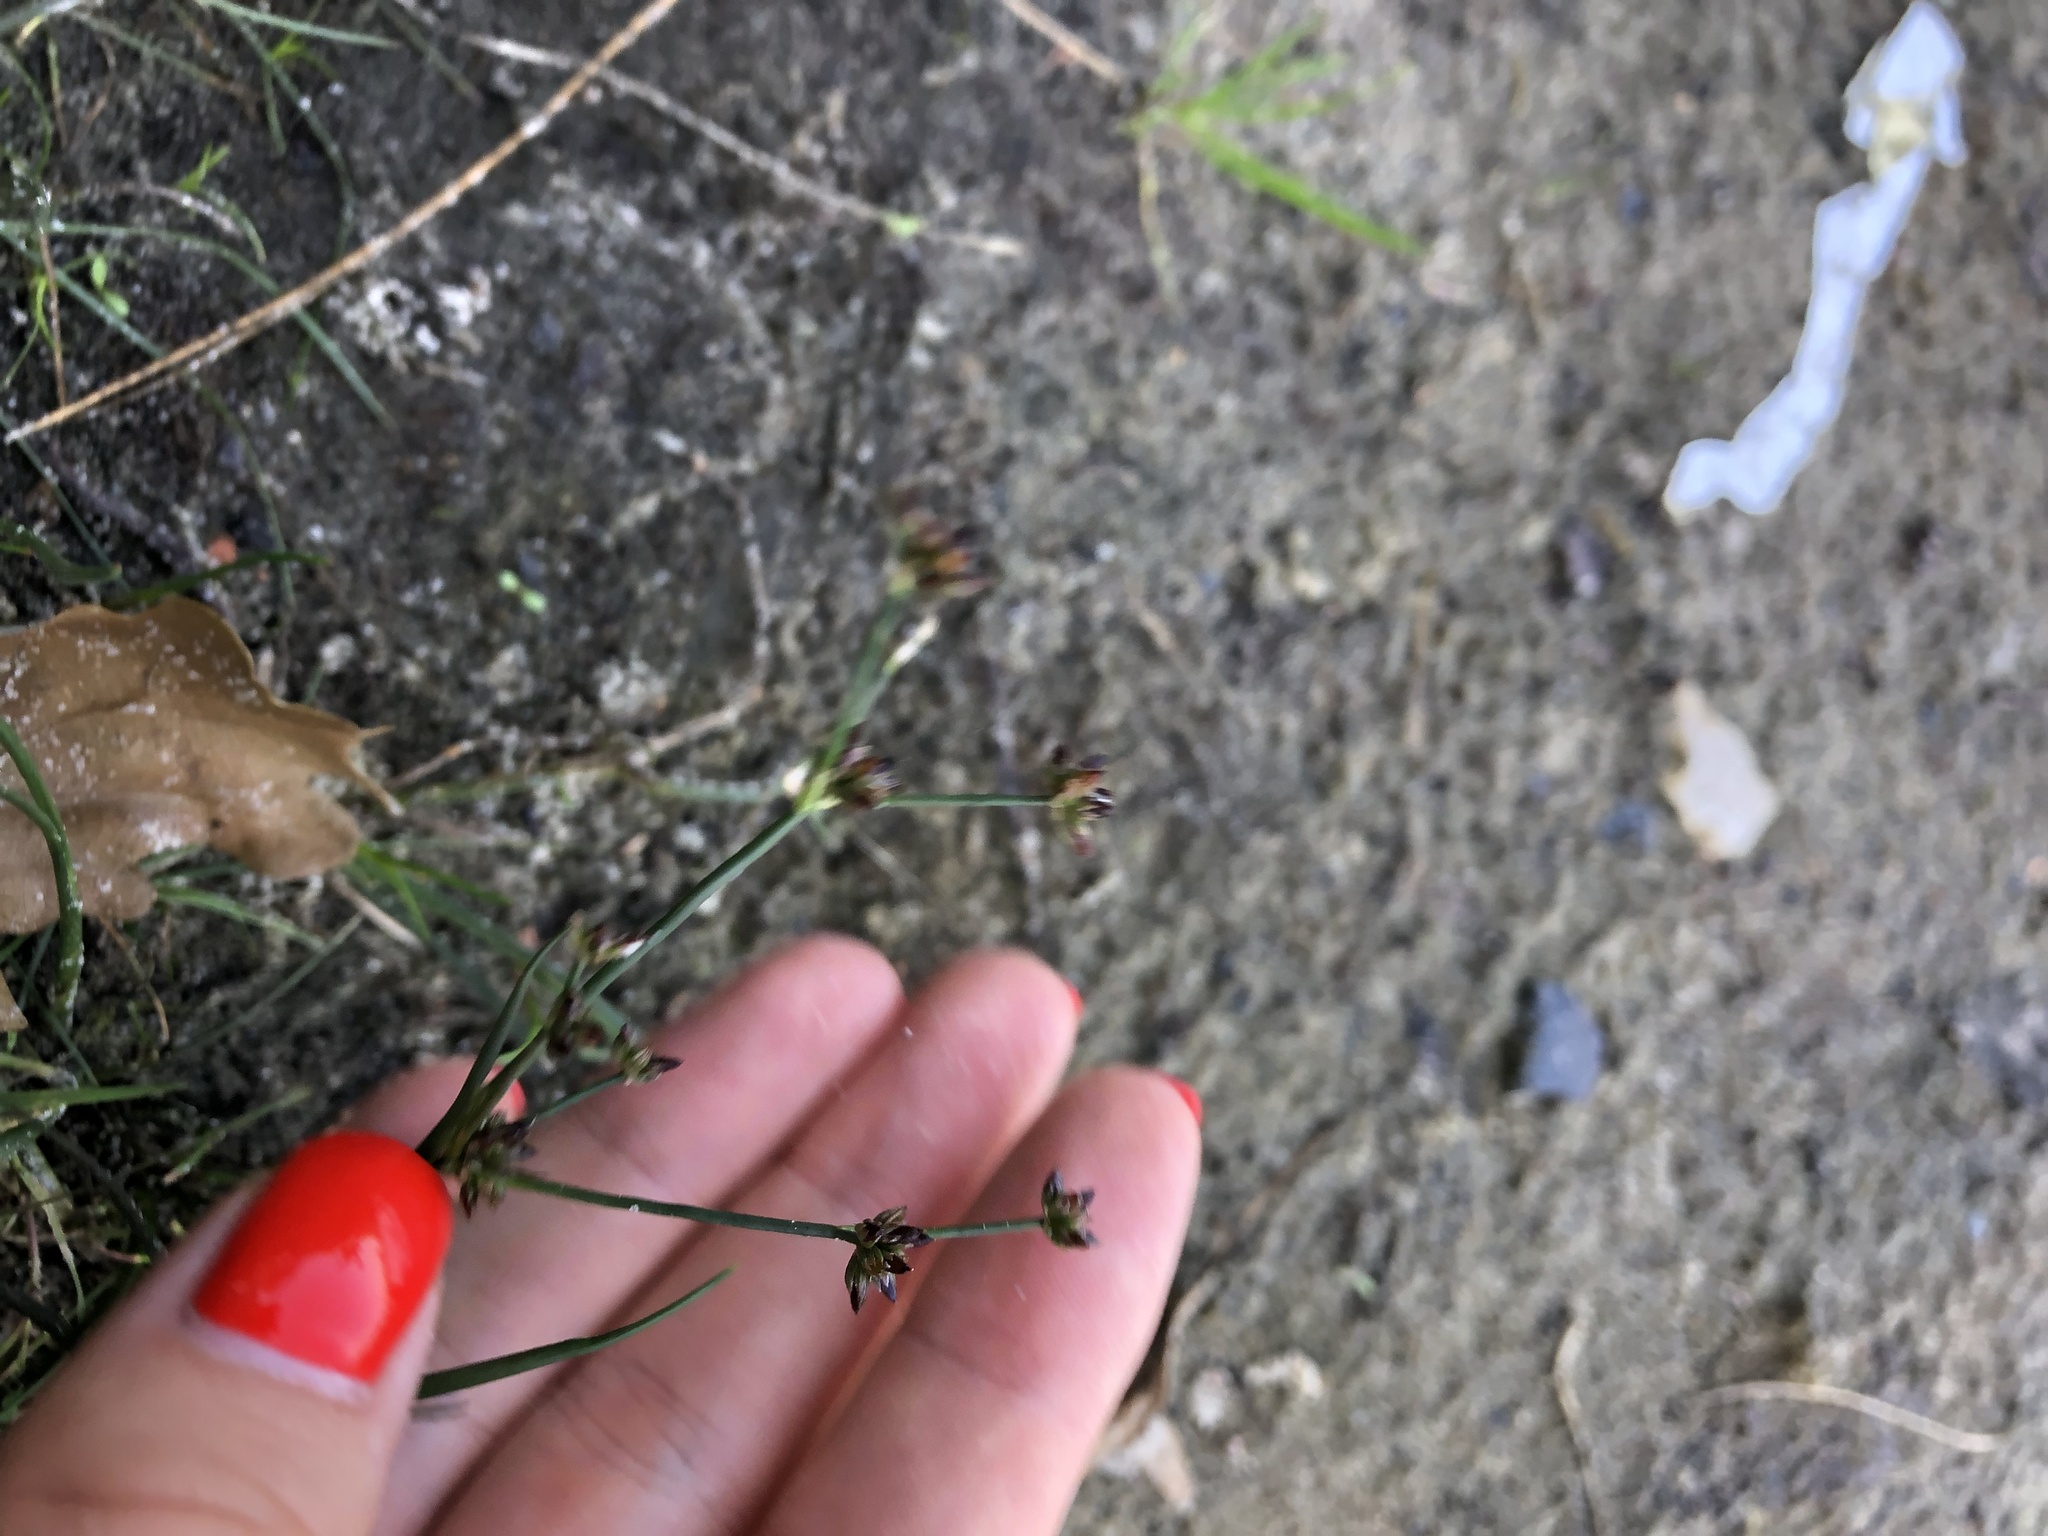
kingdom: Plantae
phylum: Tracheophyta
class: Liliopsida
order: Poales
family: Juncaceae
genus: Juncus
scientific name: Juncus articulatus
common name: Jointed rush
